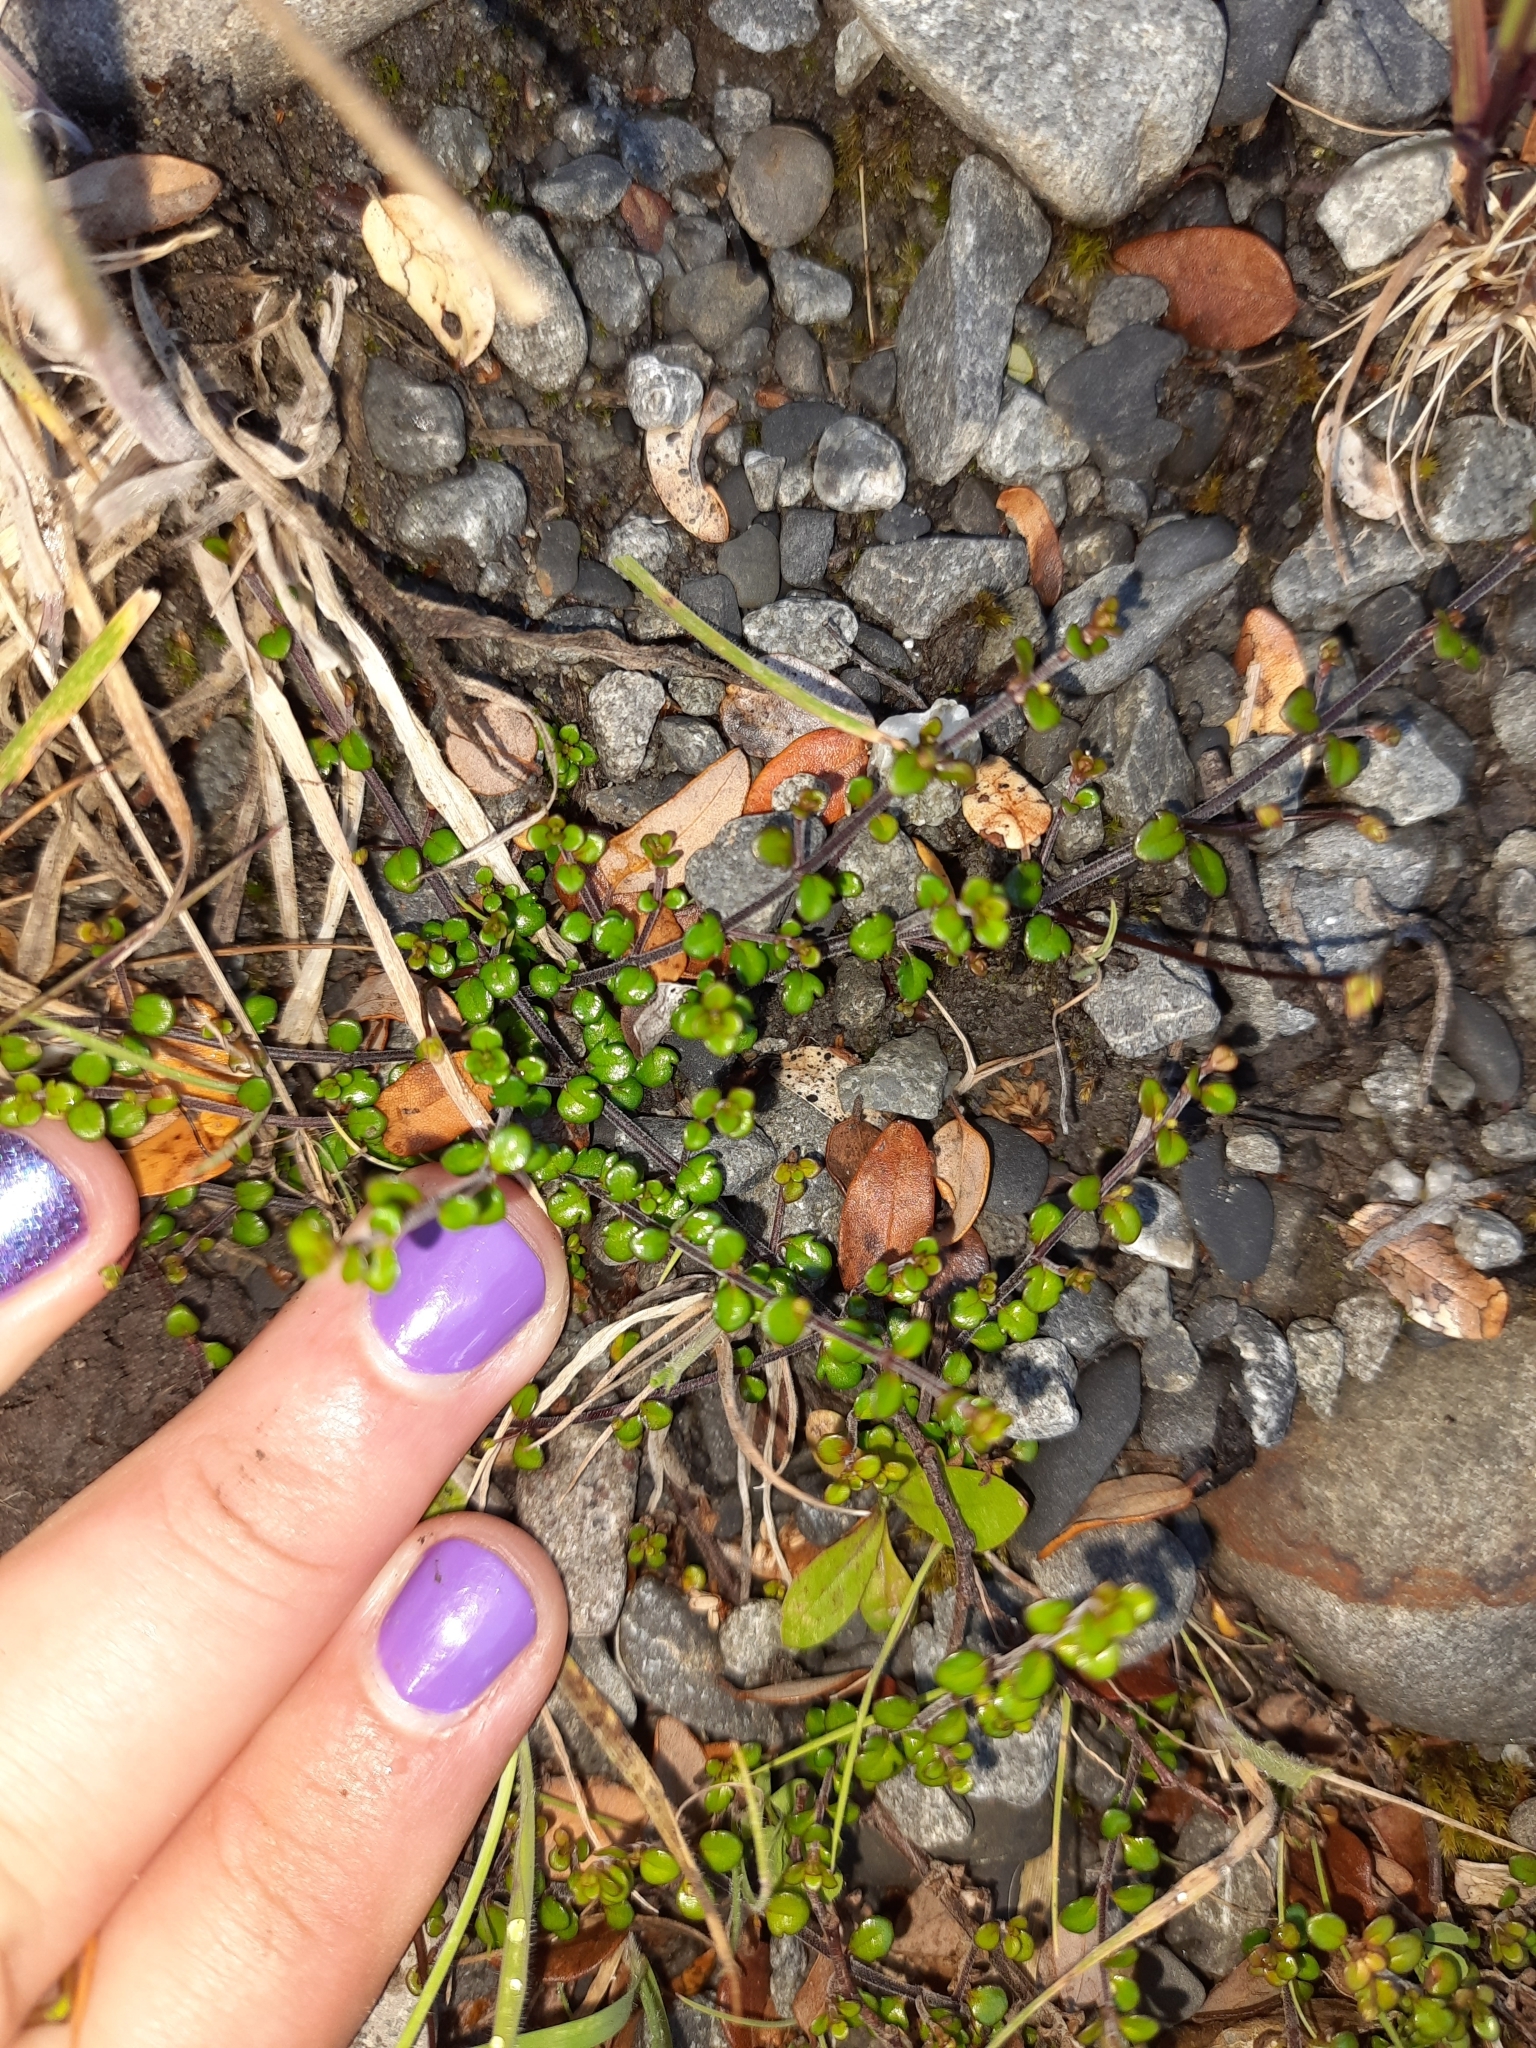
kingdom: Plantae
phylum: Tracheophyta
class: Magnoliopsida
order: Lamiales
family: Plantaginaceae
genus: Veronica
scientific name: Veronica decora
